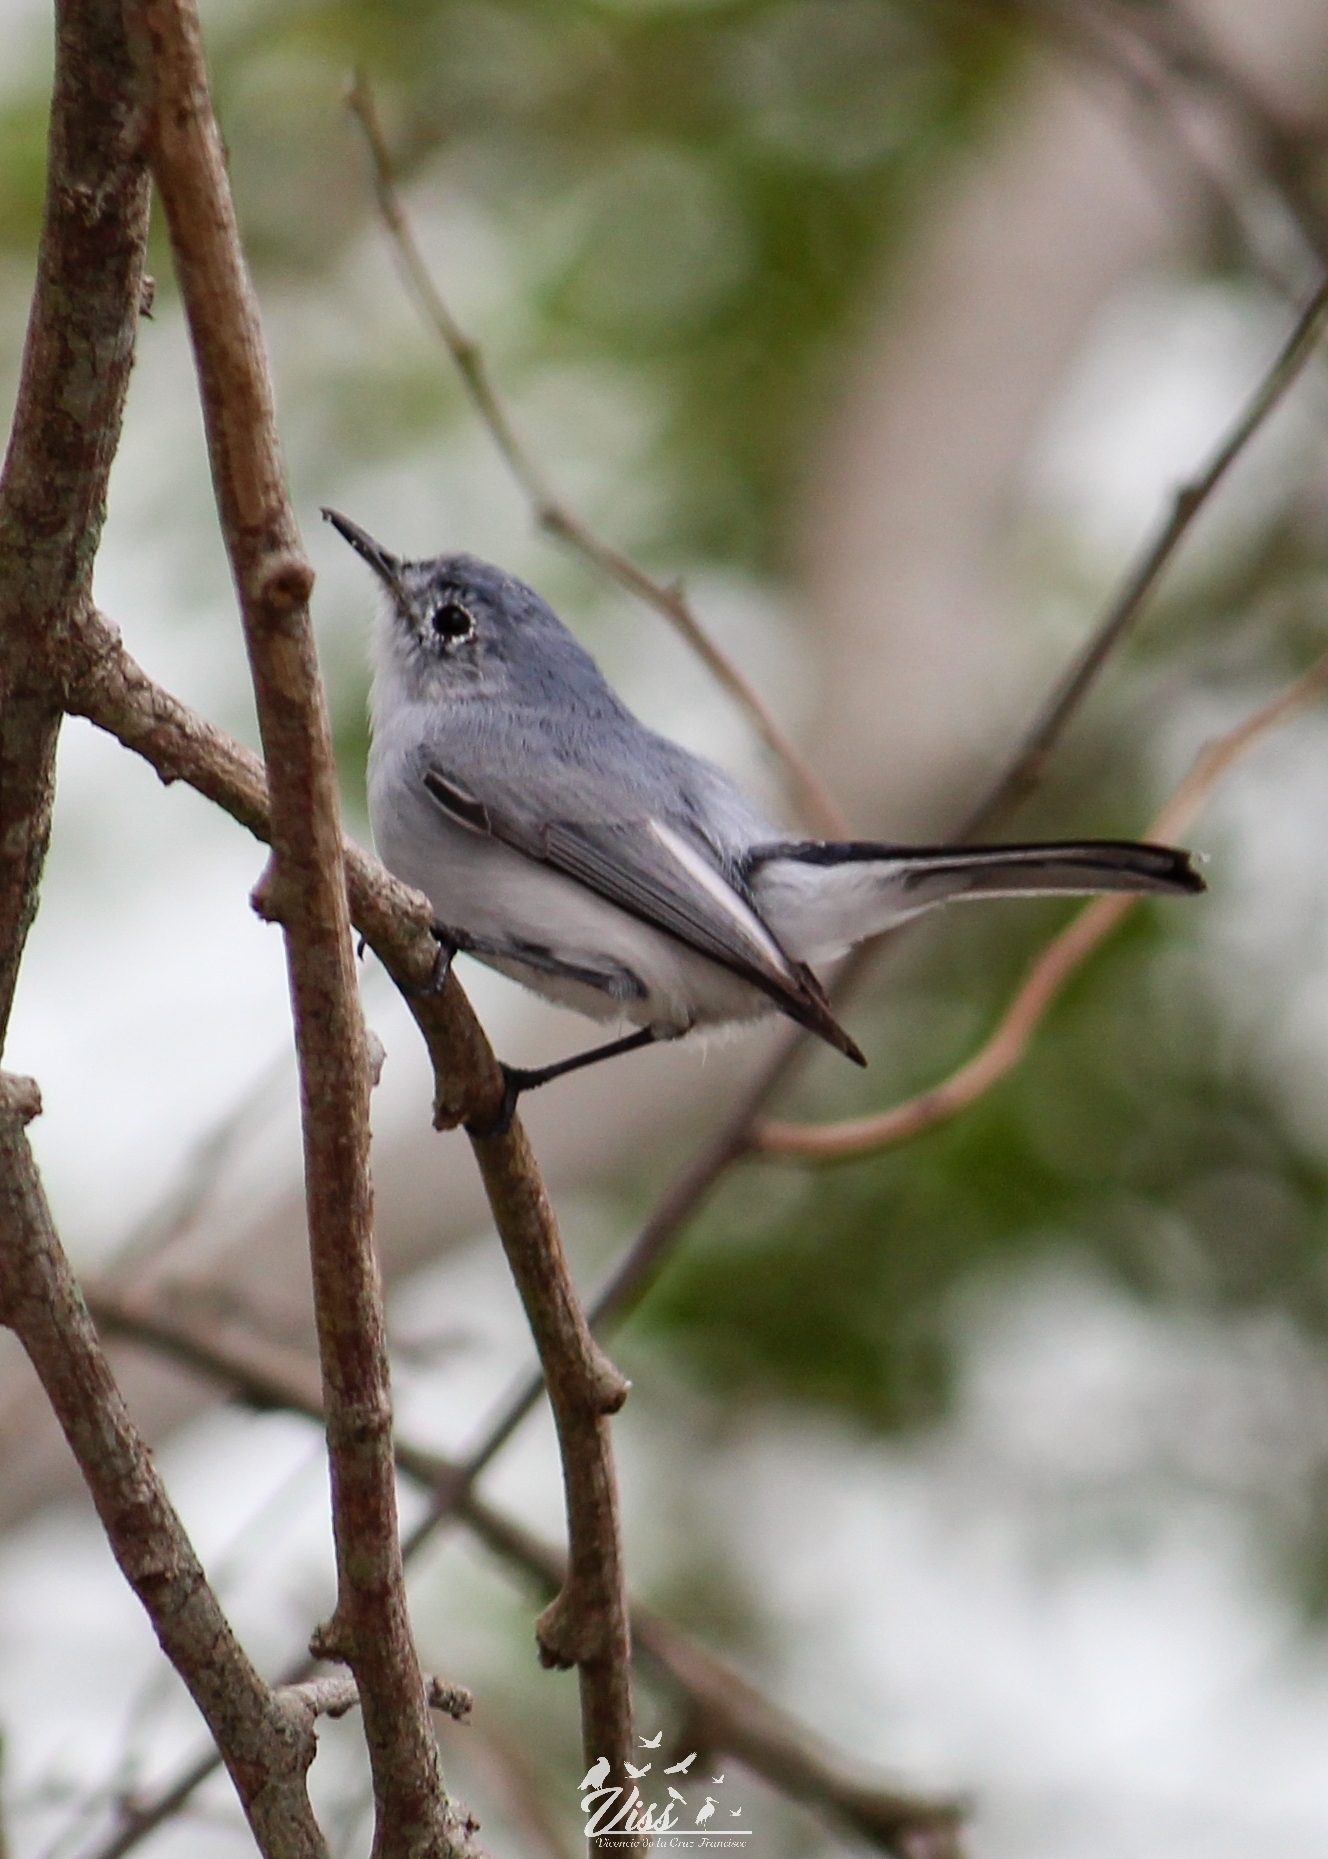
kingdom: Animalia
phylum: Chordata
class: Aves
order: Passeriformes
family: Polioptilidae
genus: Polioptila
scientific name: Polioptila caerulea
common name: Blue-gray gnatcatcher
